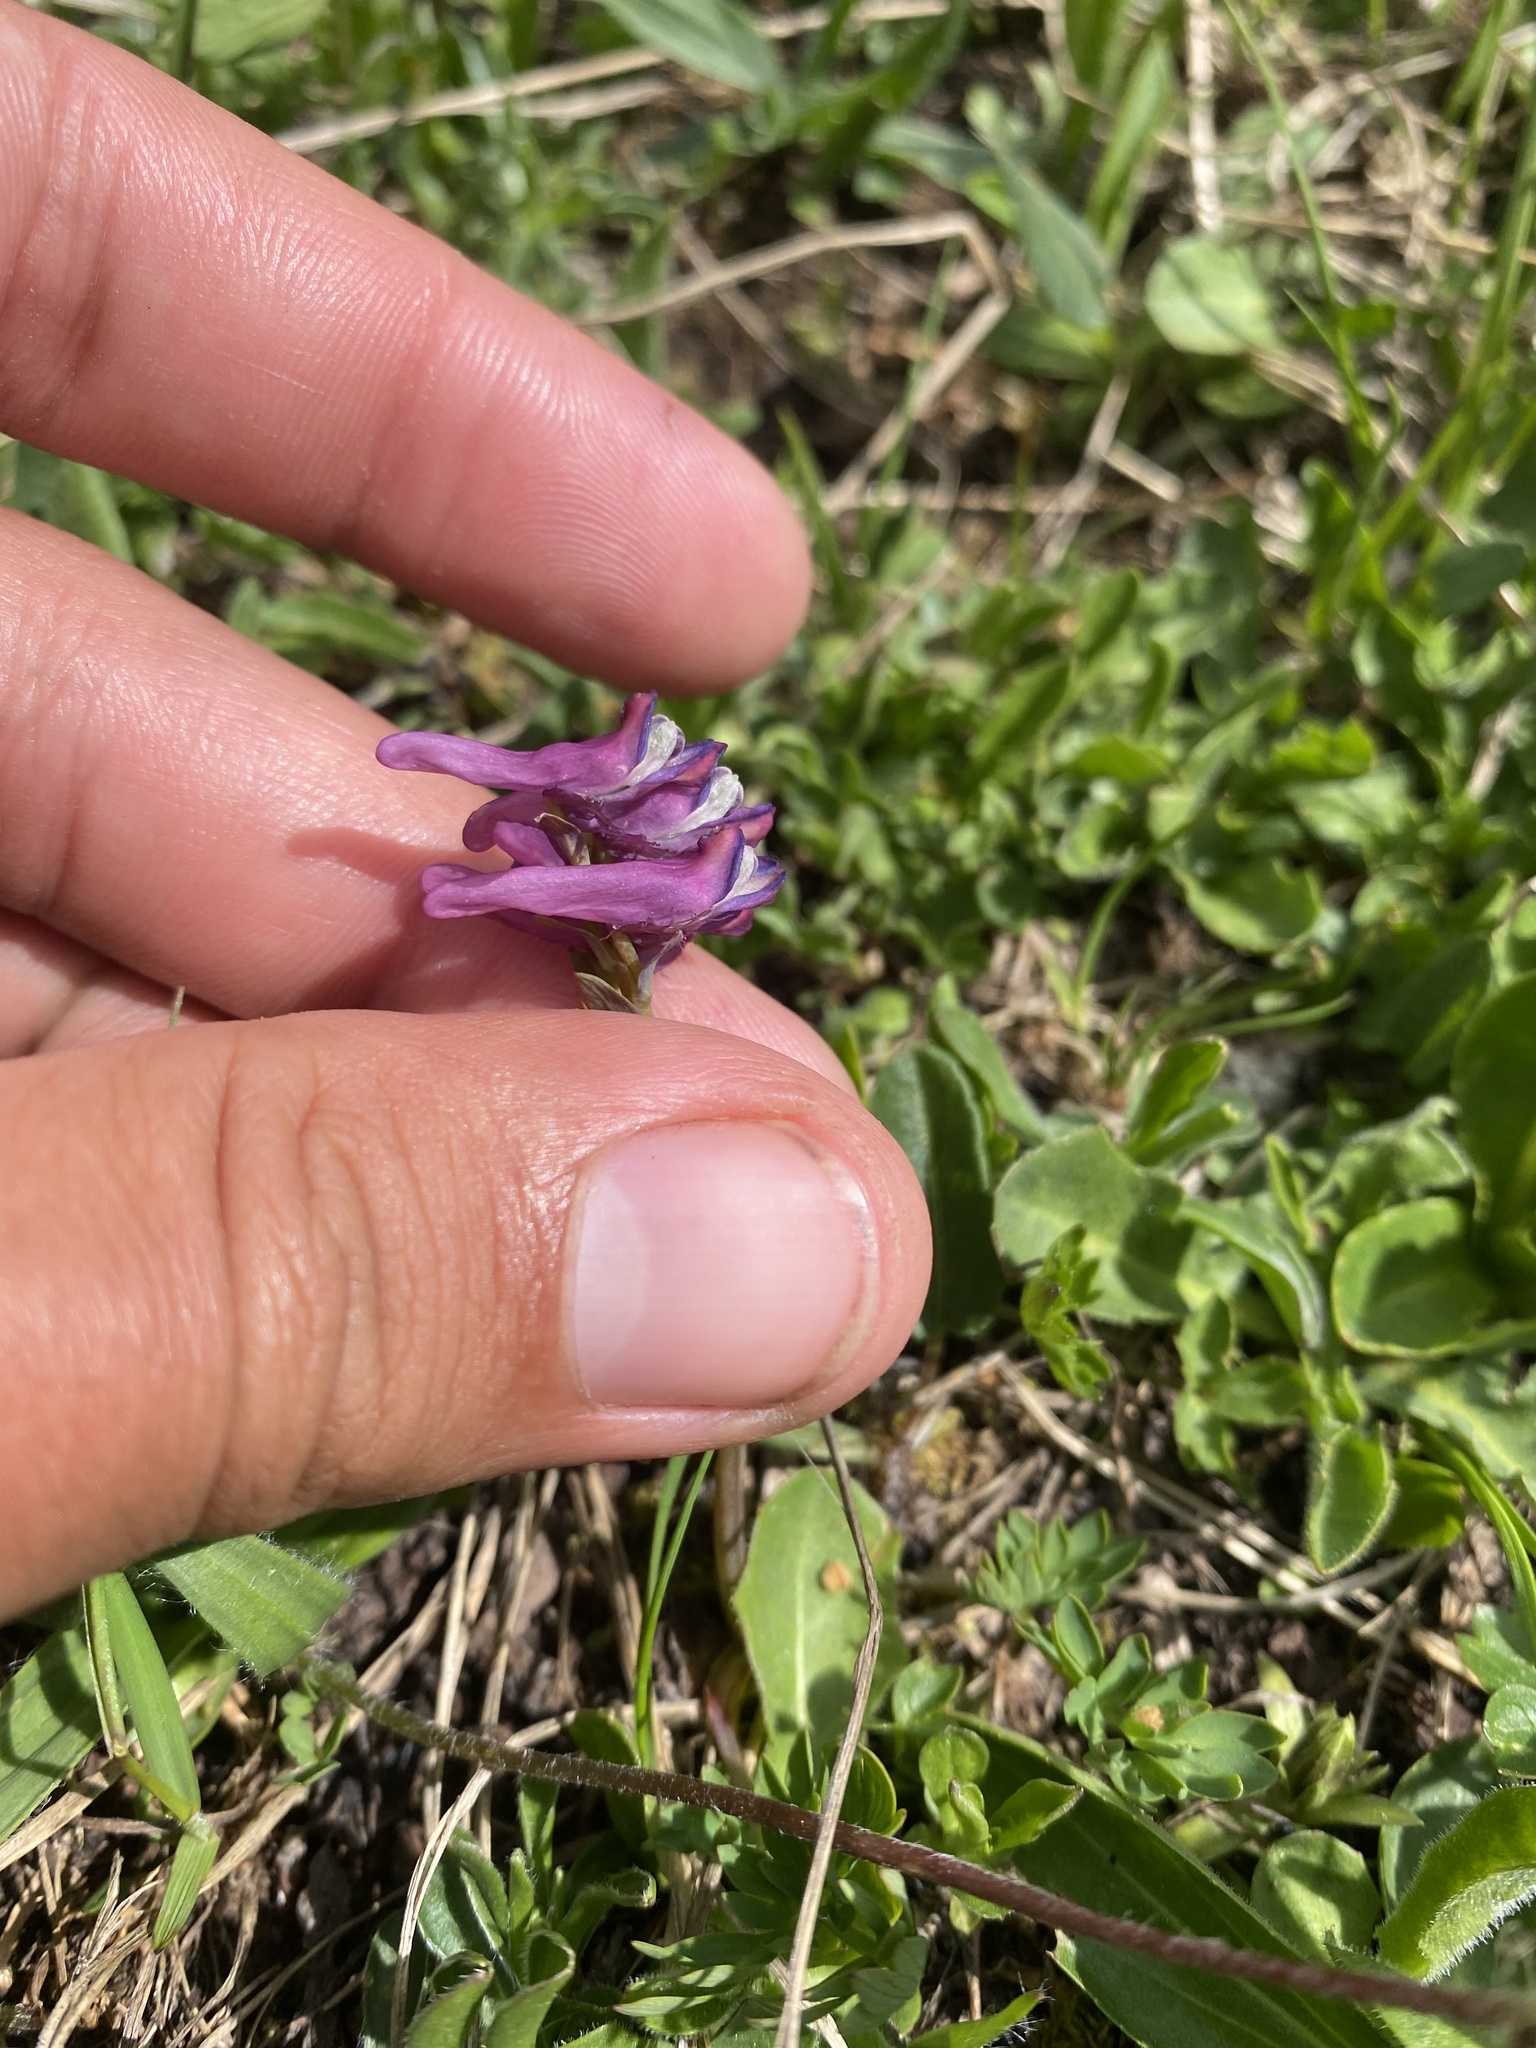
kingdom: Plantae
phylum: Tracheophyta
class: Magnoliopsida
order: Ranunculales
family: Papaveraceae
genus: Corydalis
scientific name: Corydalis conorhiza
